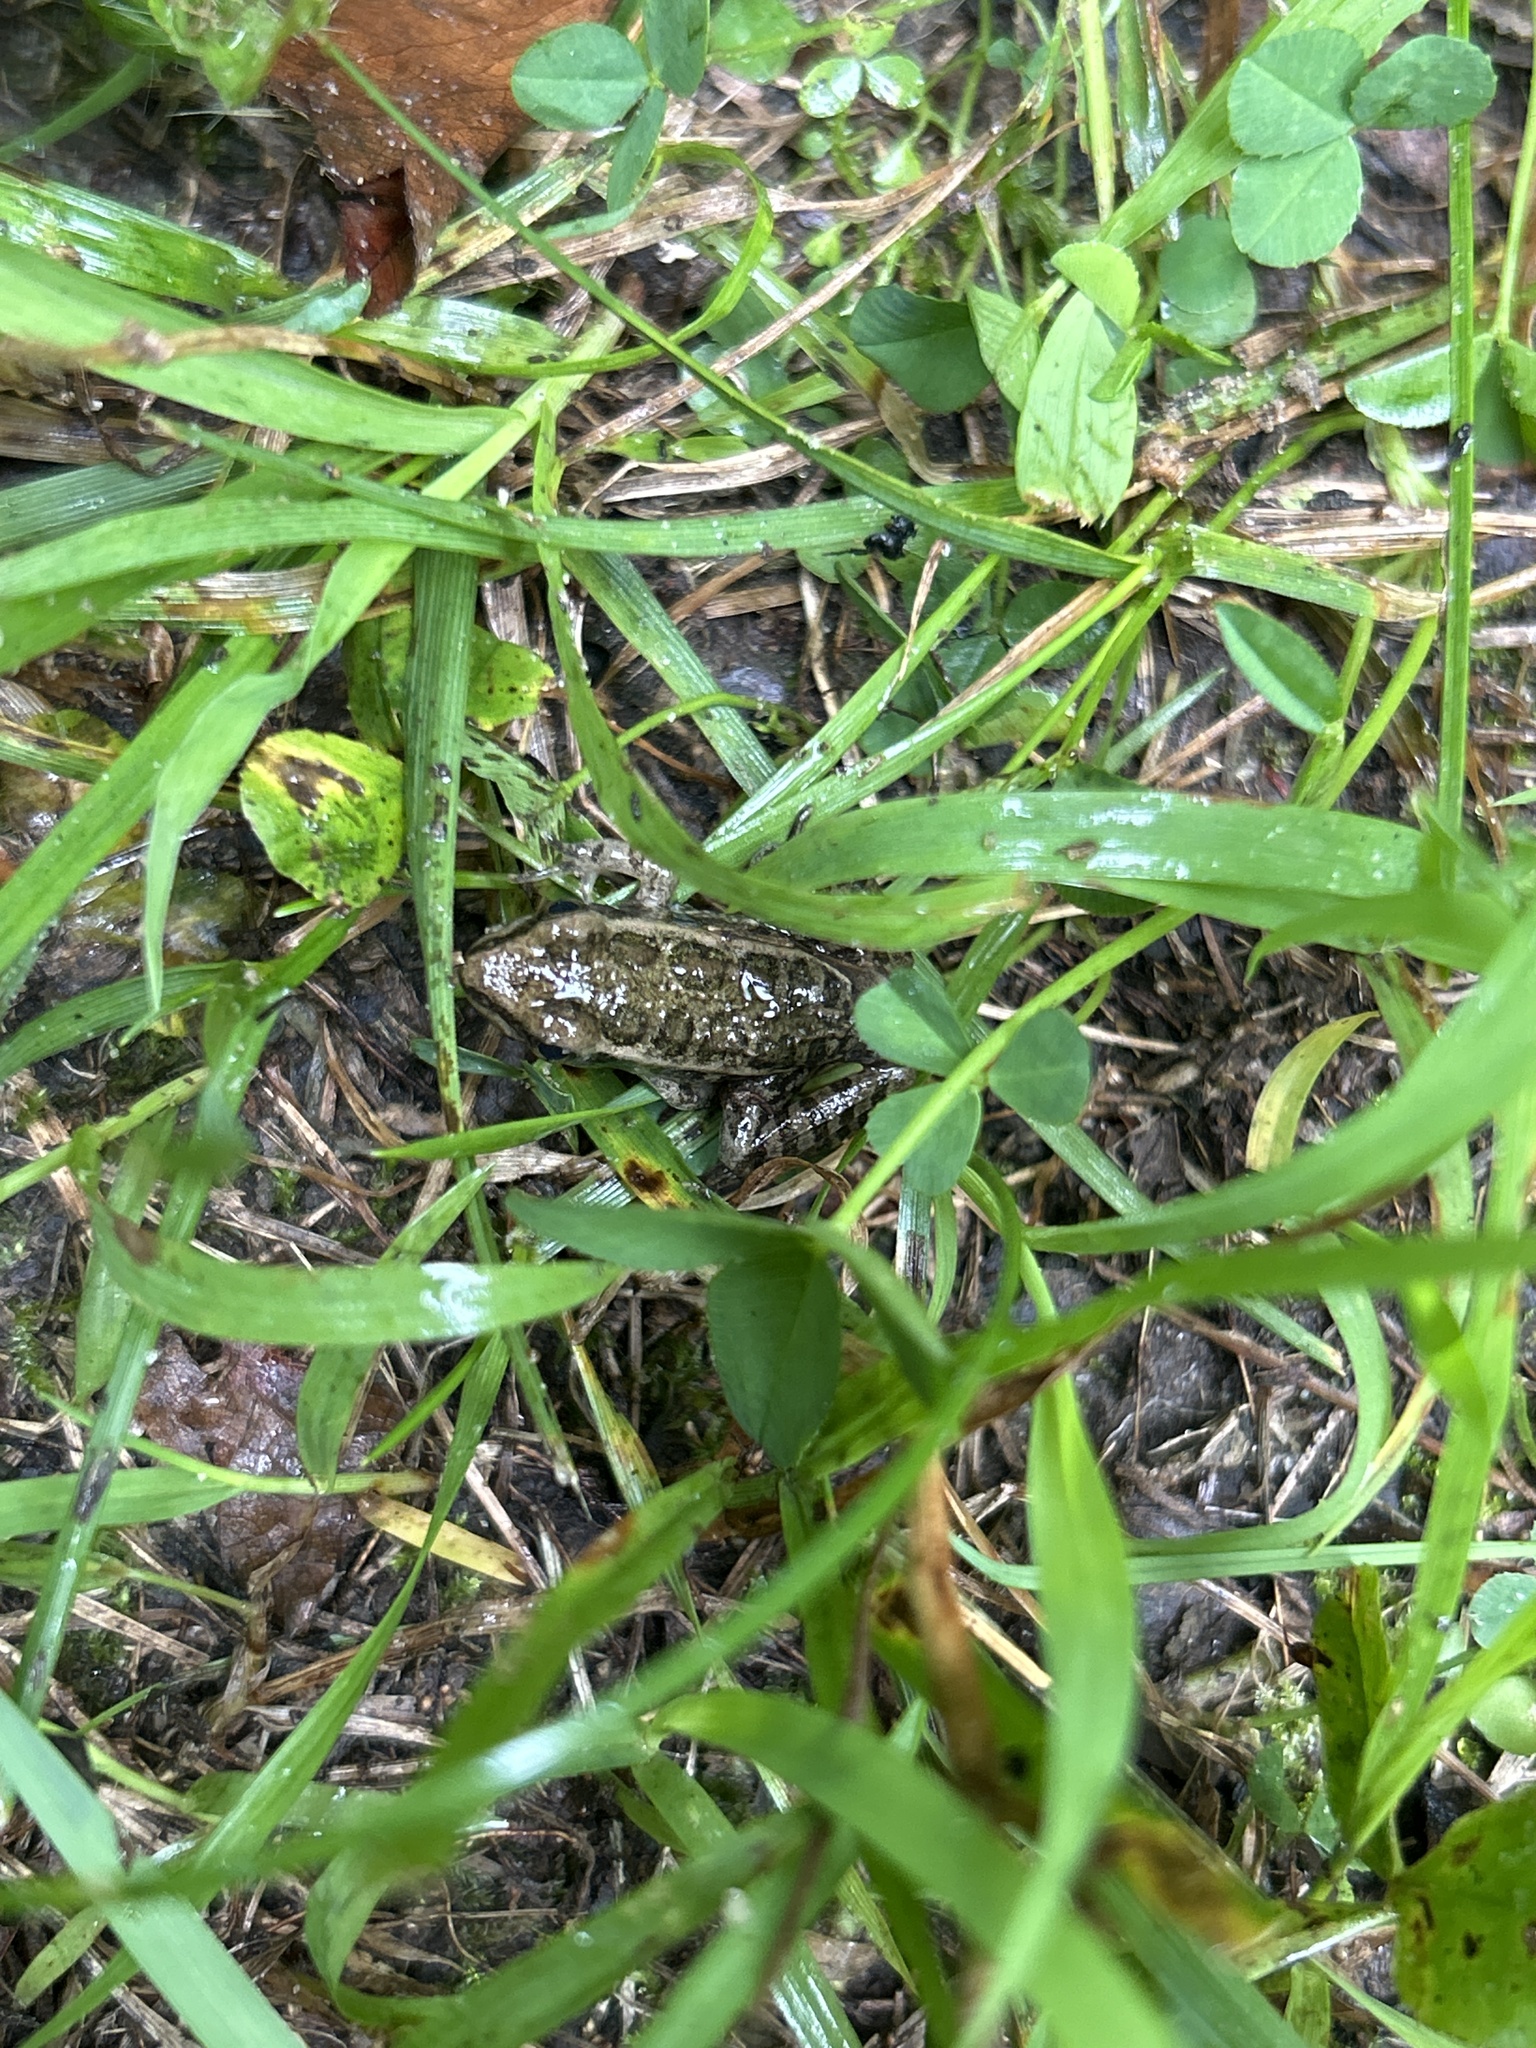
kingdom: Animalia
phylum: Chordata
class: Amphibia
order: Anura
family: Ranidae
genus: Lithobates
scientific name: Lithobates palustris
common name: Pickerel frog
